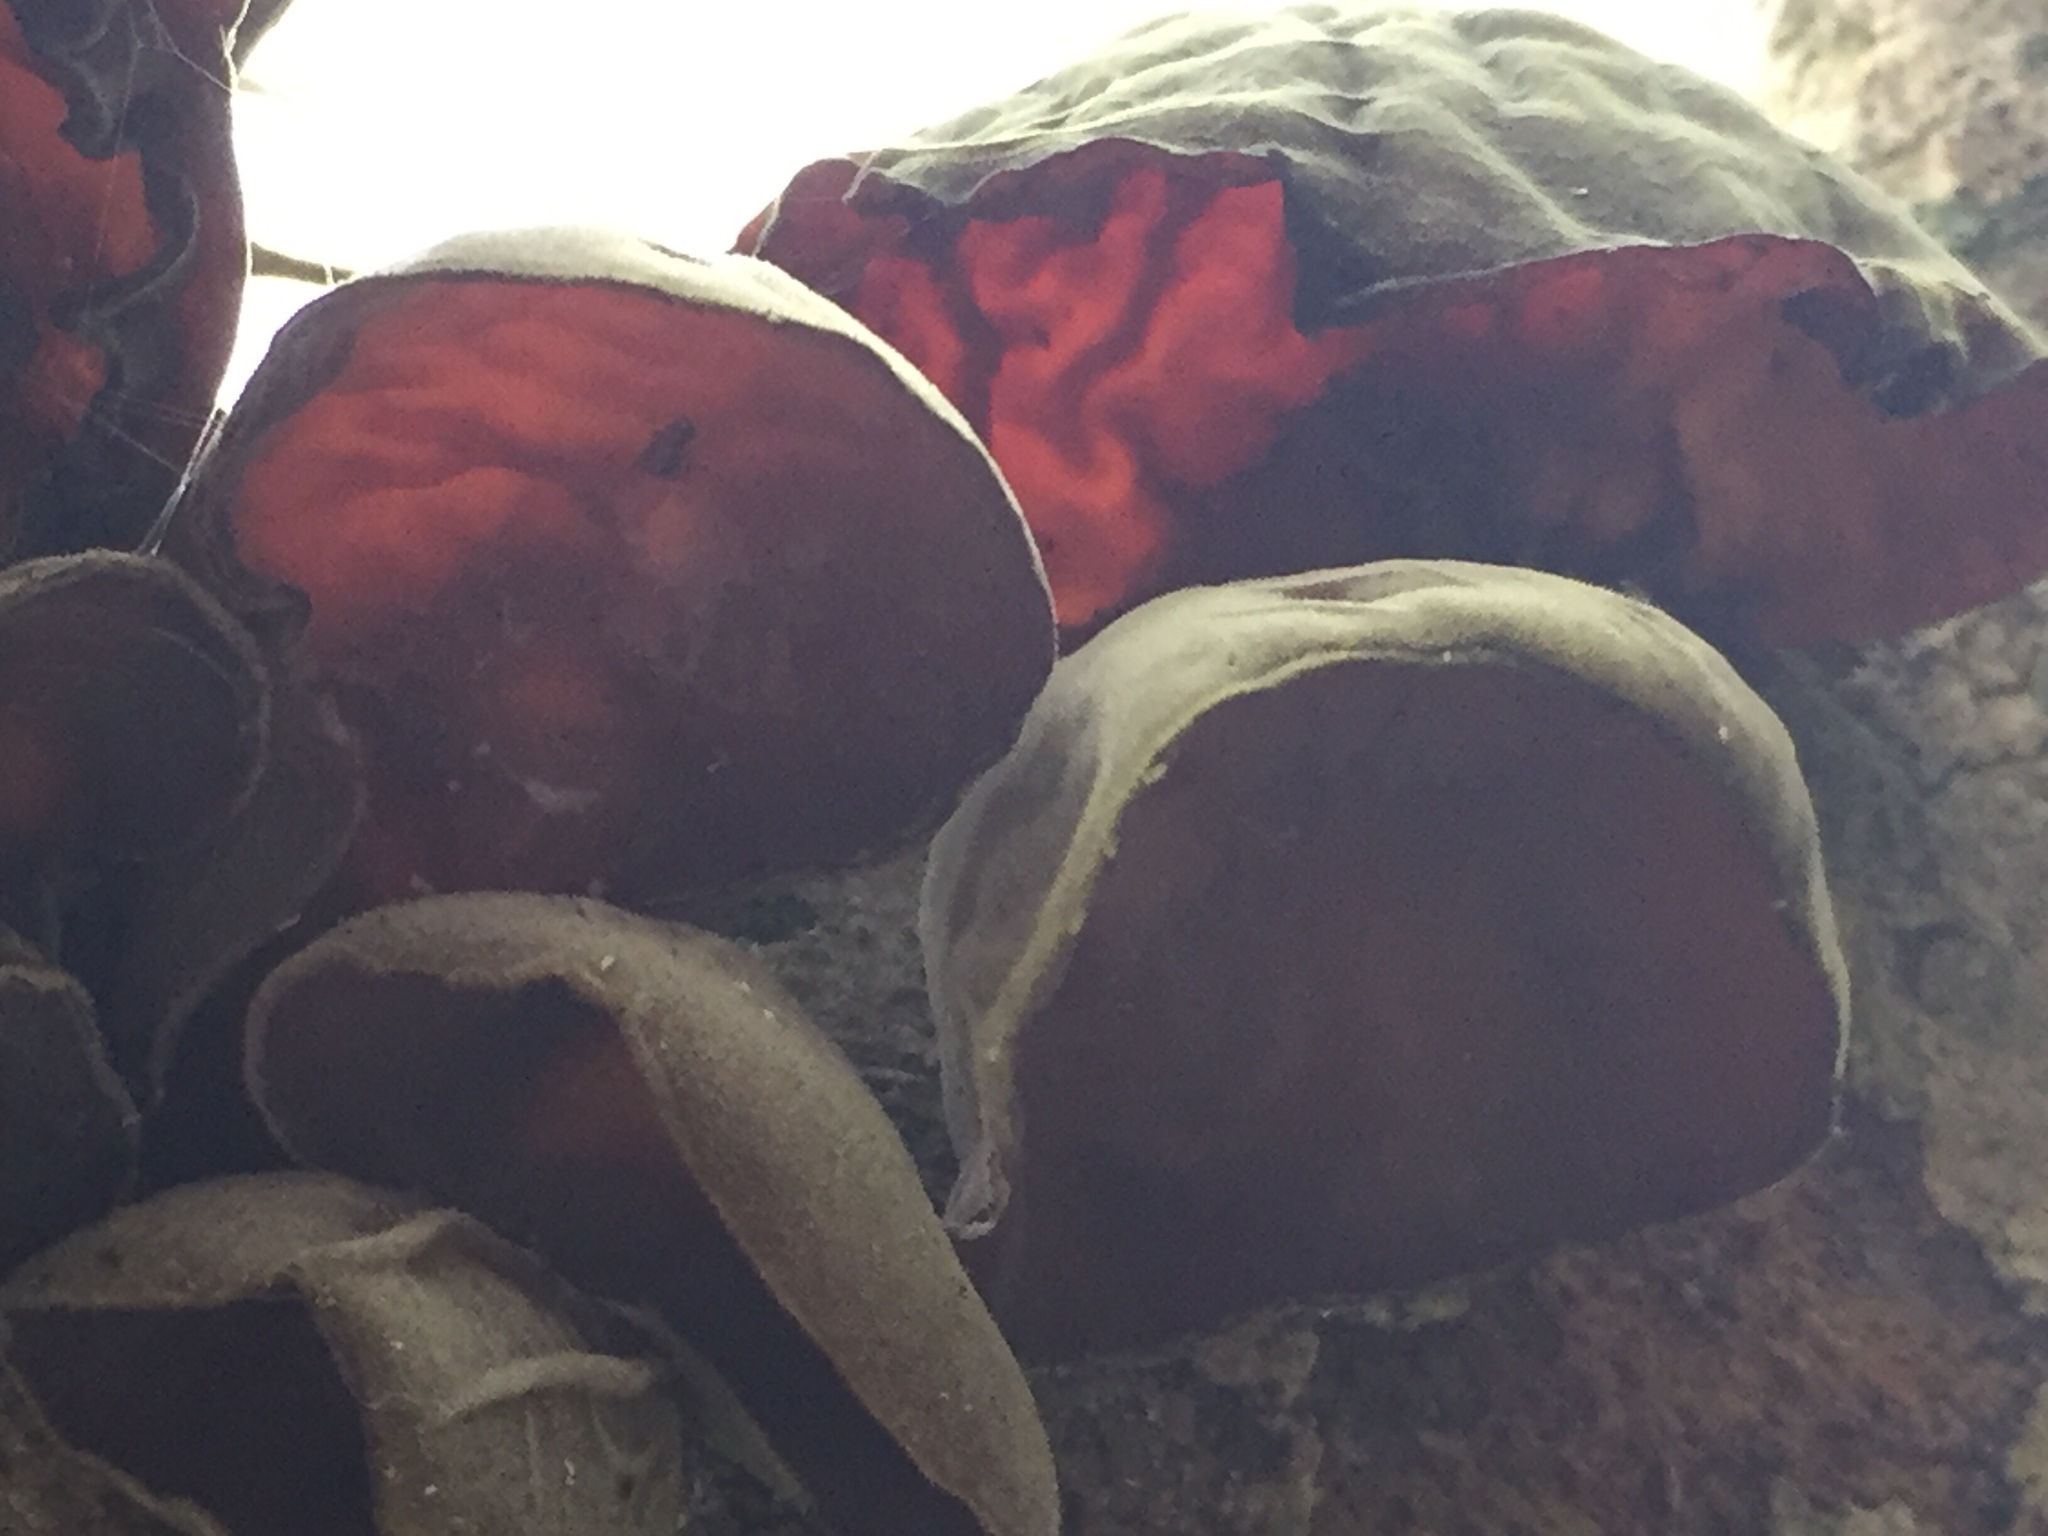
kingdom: Fungi
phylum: Basidiomycota
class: Agaricomycetes
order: Auriculariales
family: Auriculariaceae
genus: Auricularia
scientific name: Auricularia cornea
